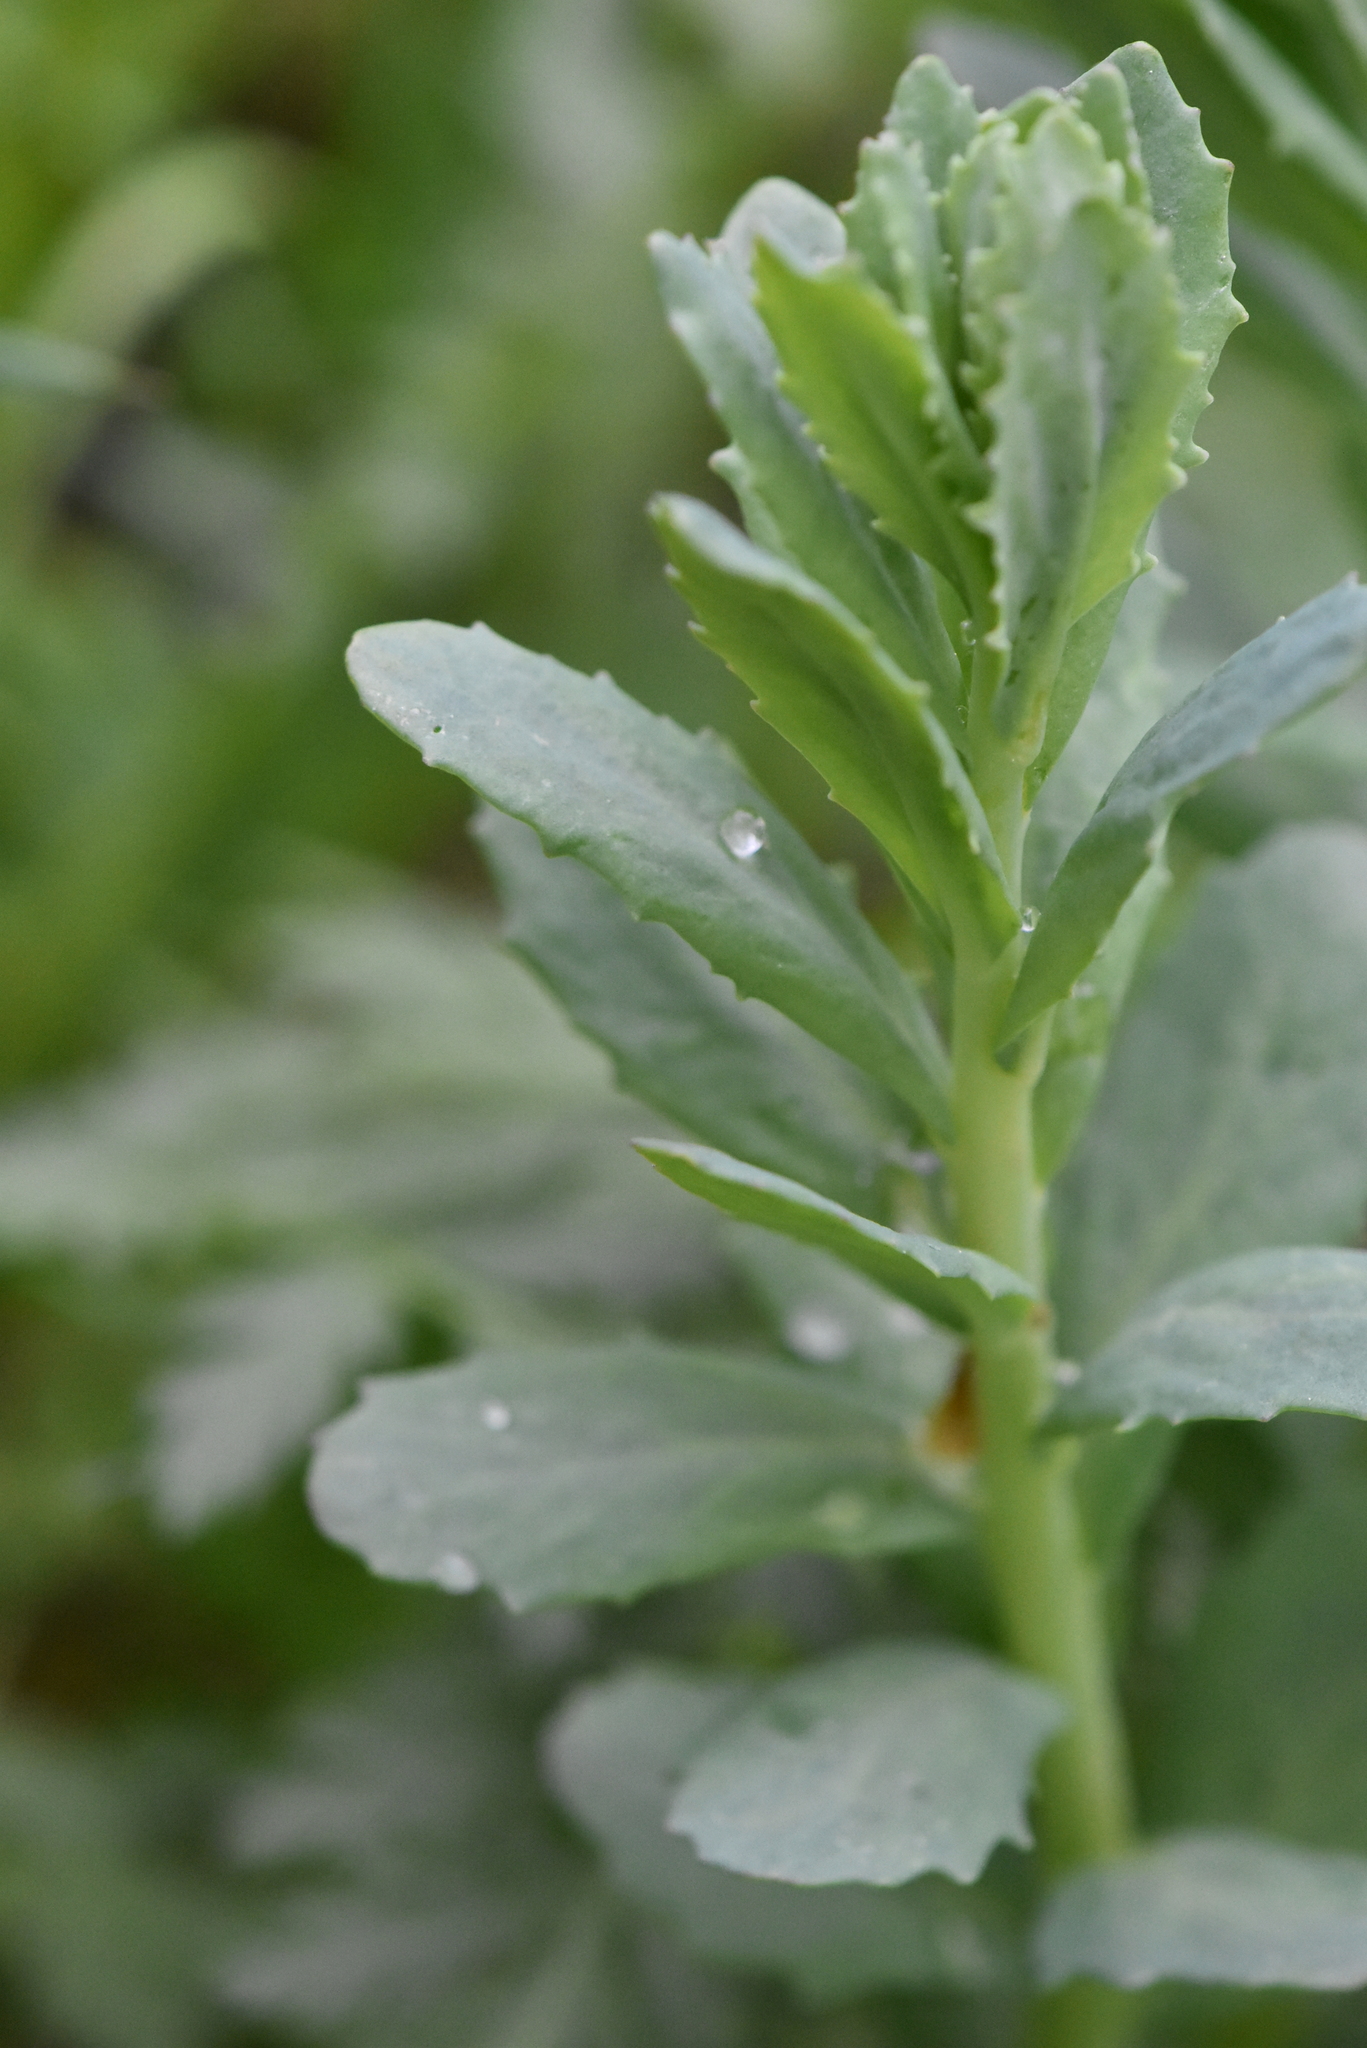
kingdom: Plantae
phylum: Tracheophyta
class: Magnoliopsida
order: Saxifragales
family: Crassulaceae
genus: Hylotelephium
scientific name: Hylotelephium telephium
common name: Live-forever
